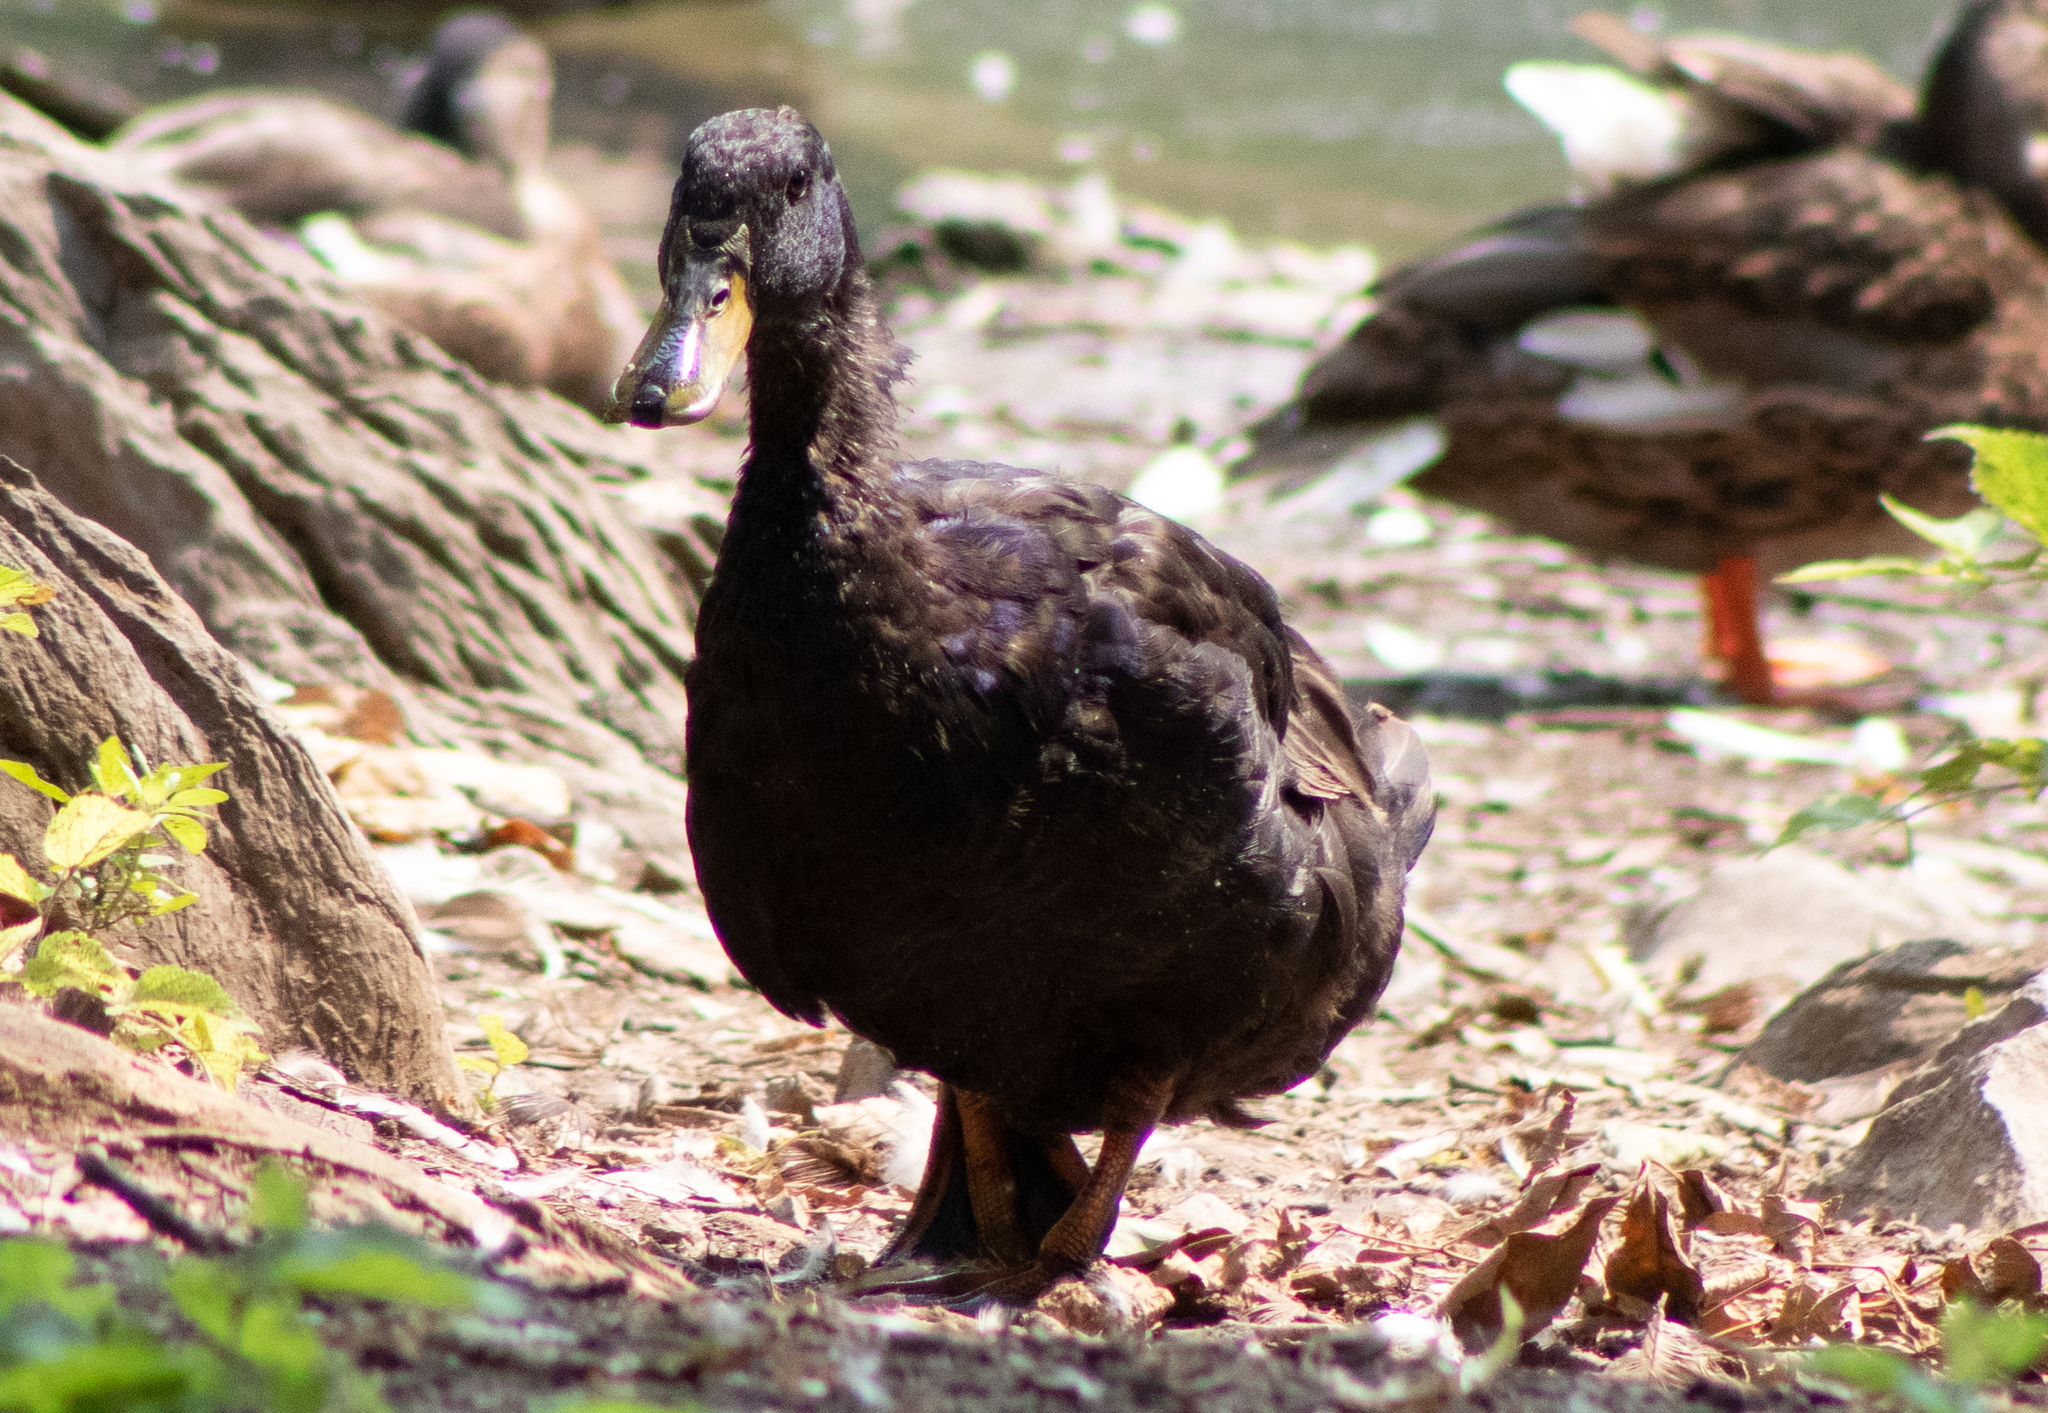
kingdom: Animalia
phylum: Chordata
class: Aves
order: Anseriformes
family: Anatidae
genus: Anas
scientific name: Anas platyrhynchos
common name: Mallard
